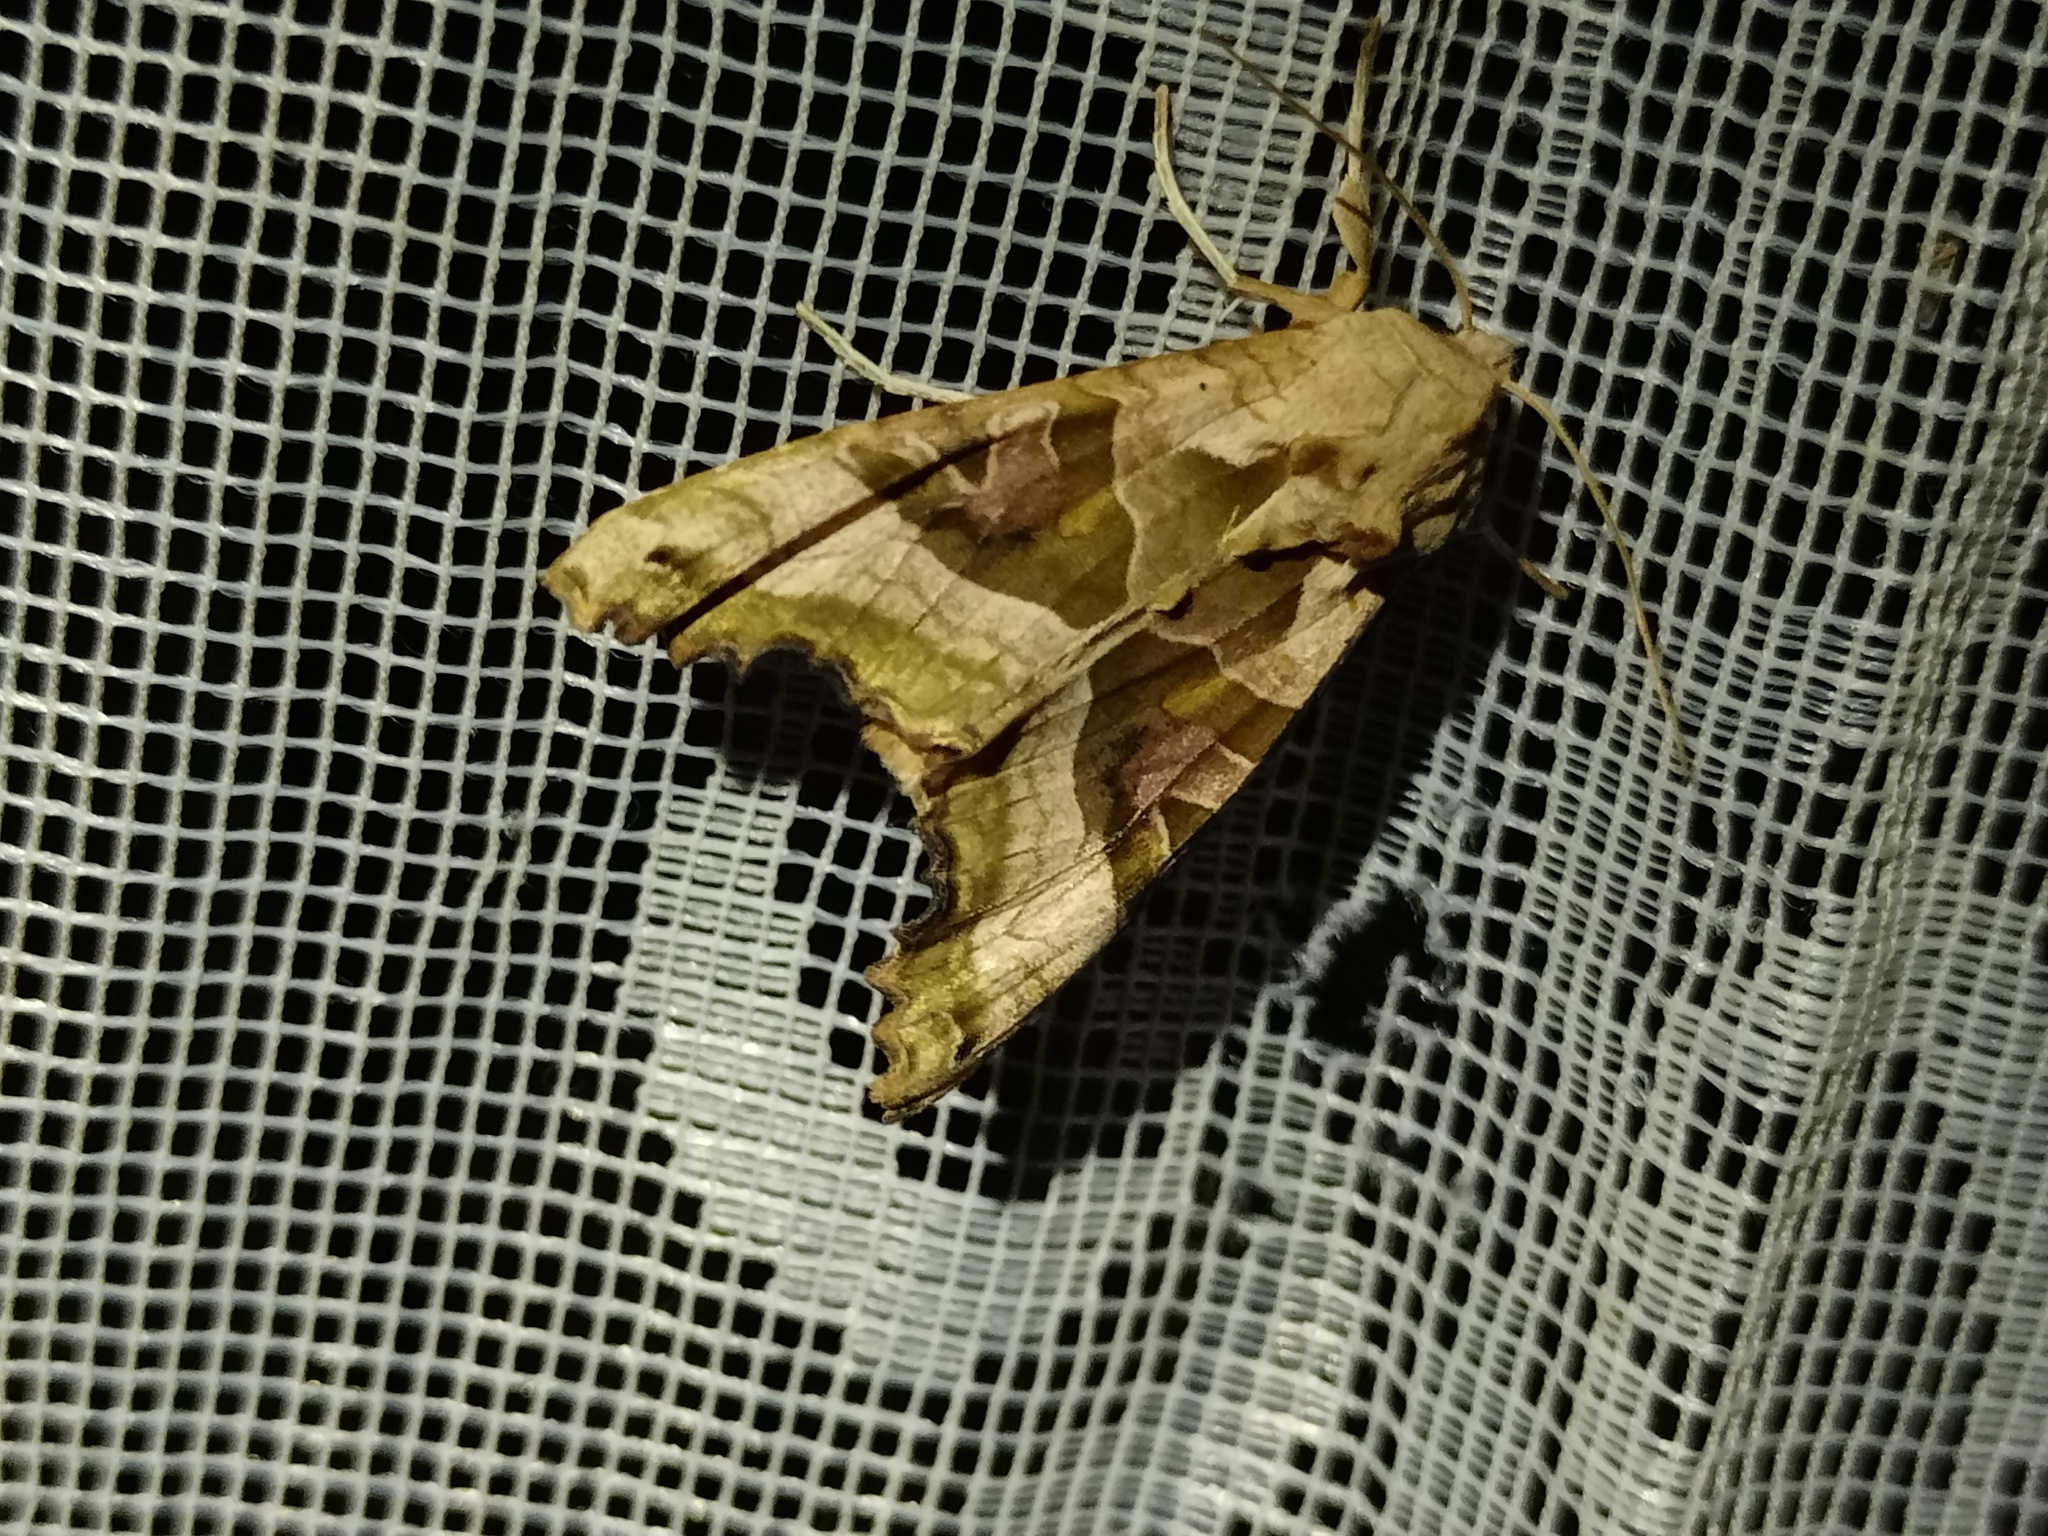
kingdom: Animalia
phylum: Arthropoda
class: Insecta
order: Lepidoptera
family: Noctuidae
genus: Phlogophora
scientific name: Phlogophora meticulosa
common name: Angle shades
